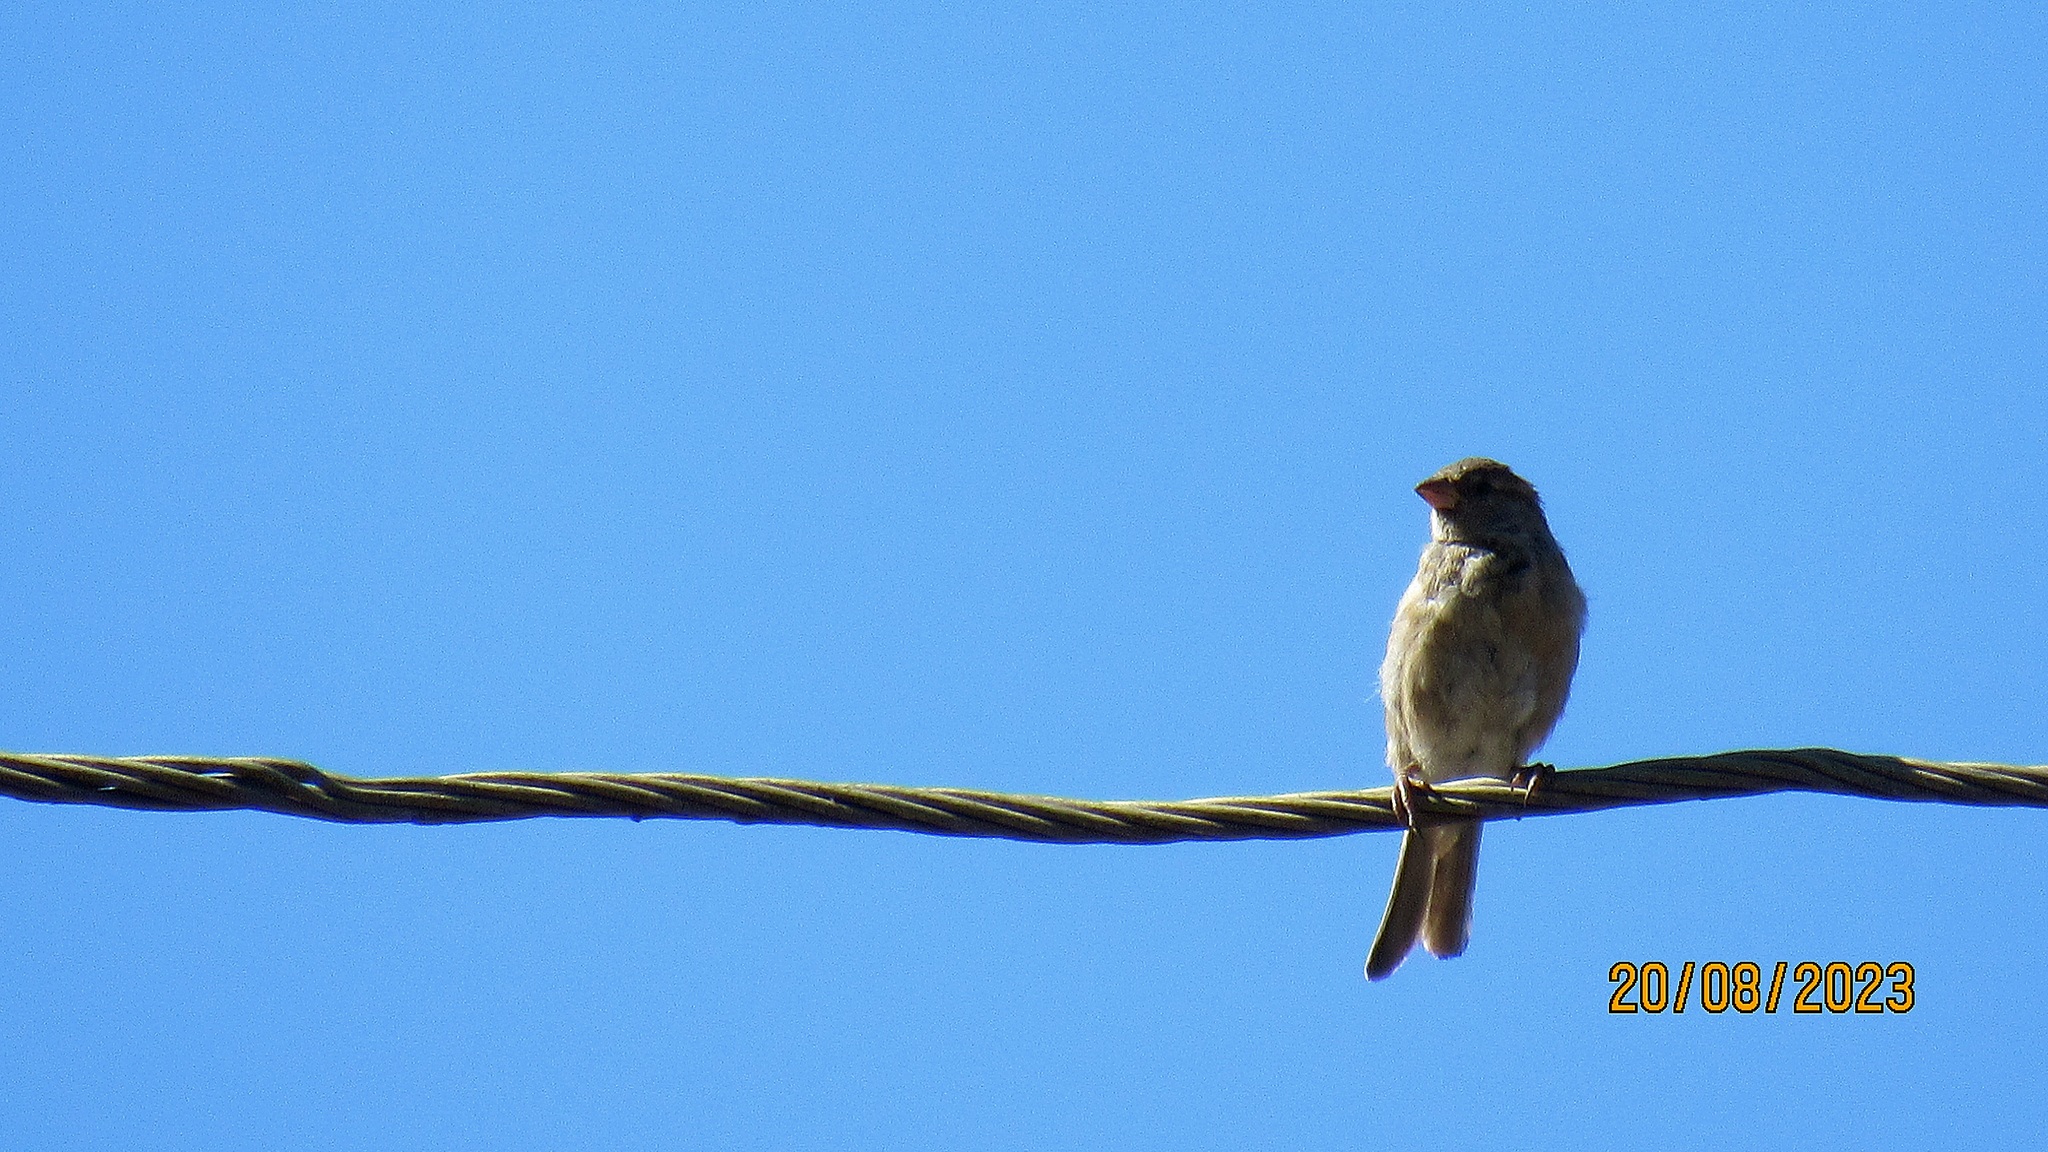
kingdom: Animalia
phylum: Chordata
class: Aves
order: Passeriformes
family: Passeridae
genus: Passer
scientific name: Passer domesticus
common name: House sparrow
